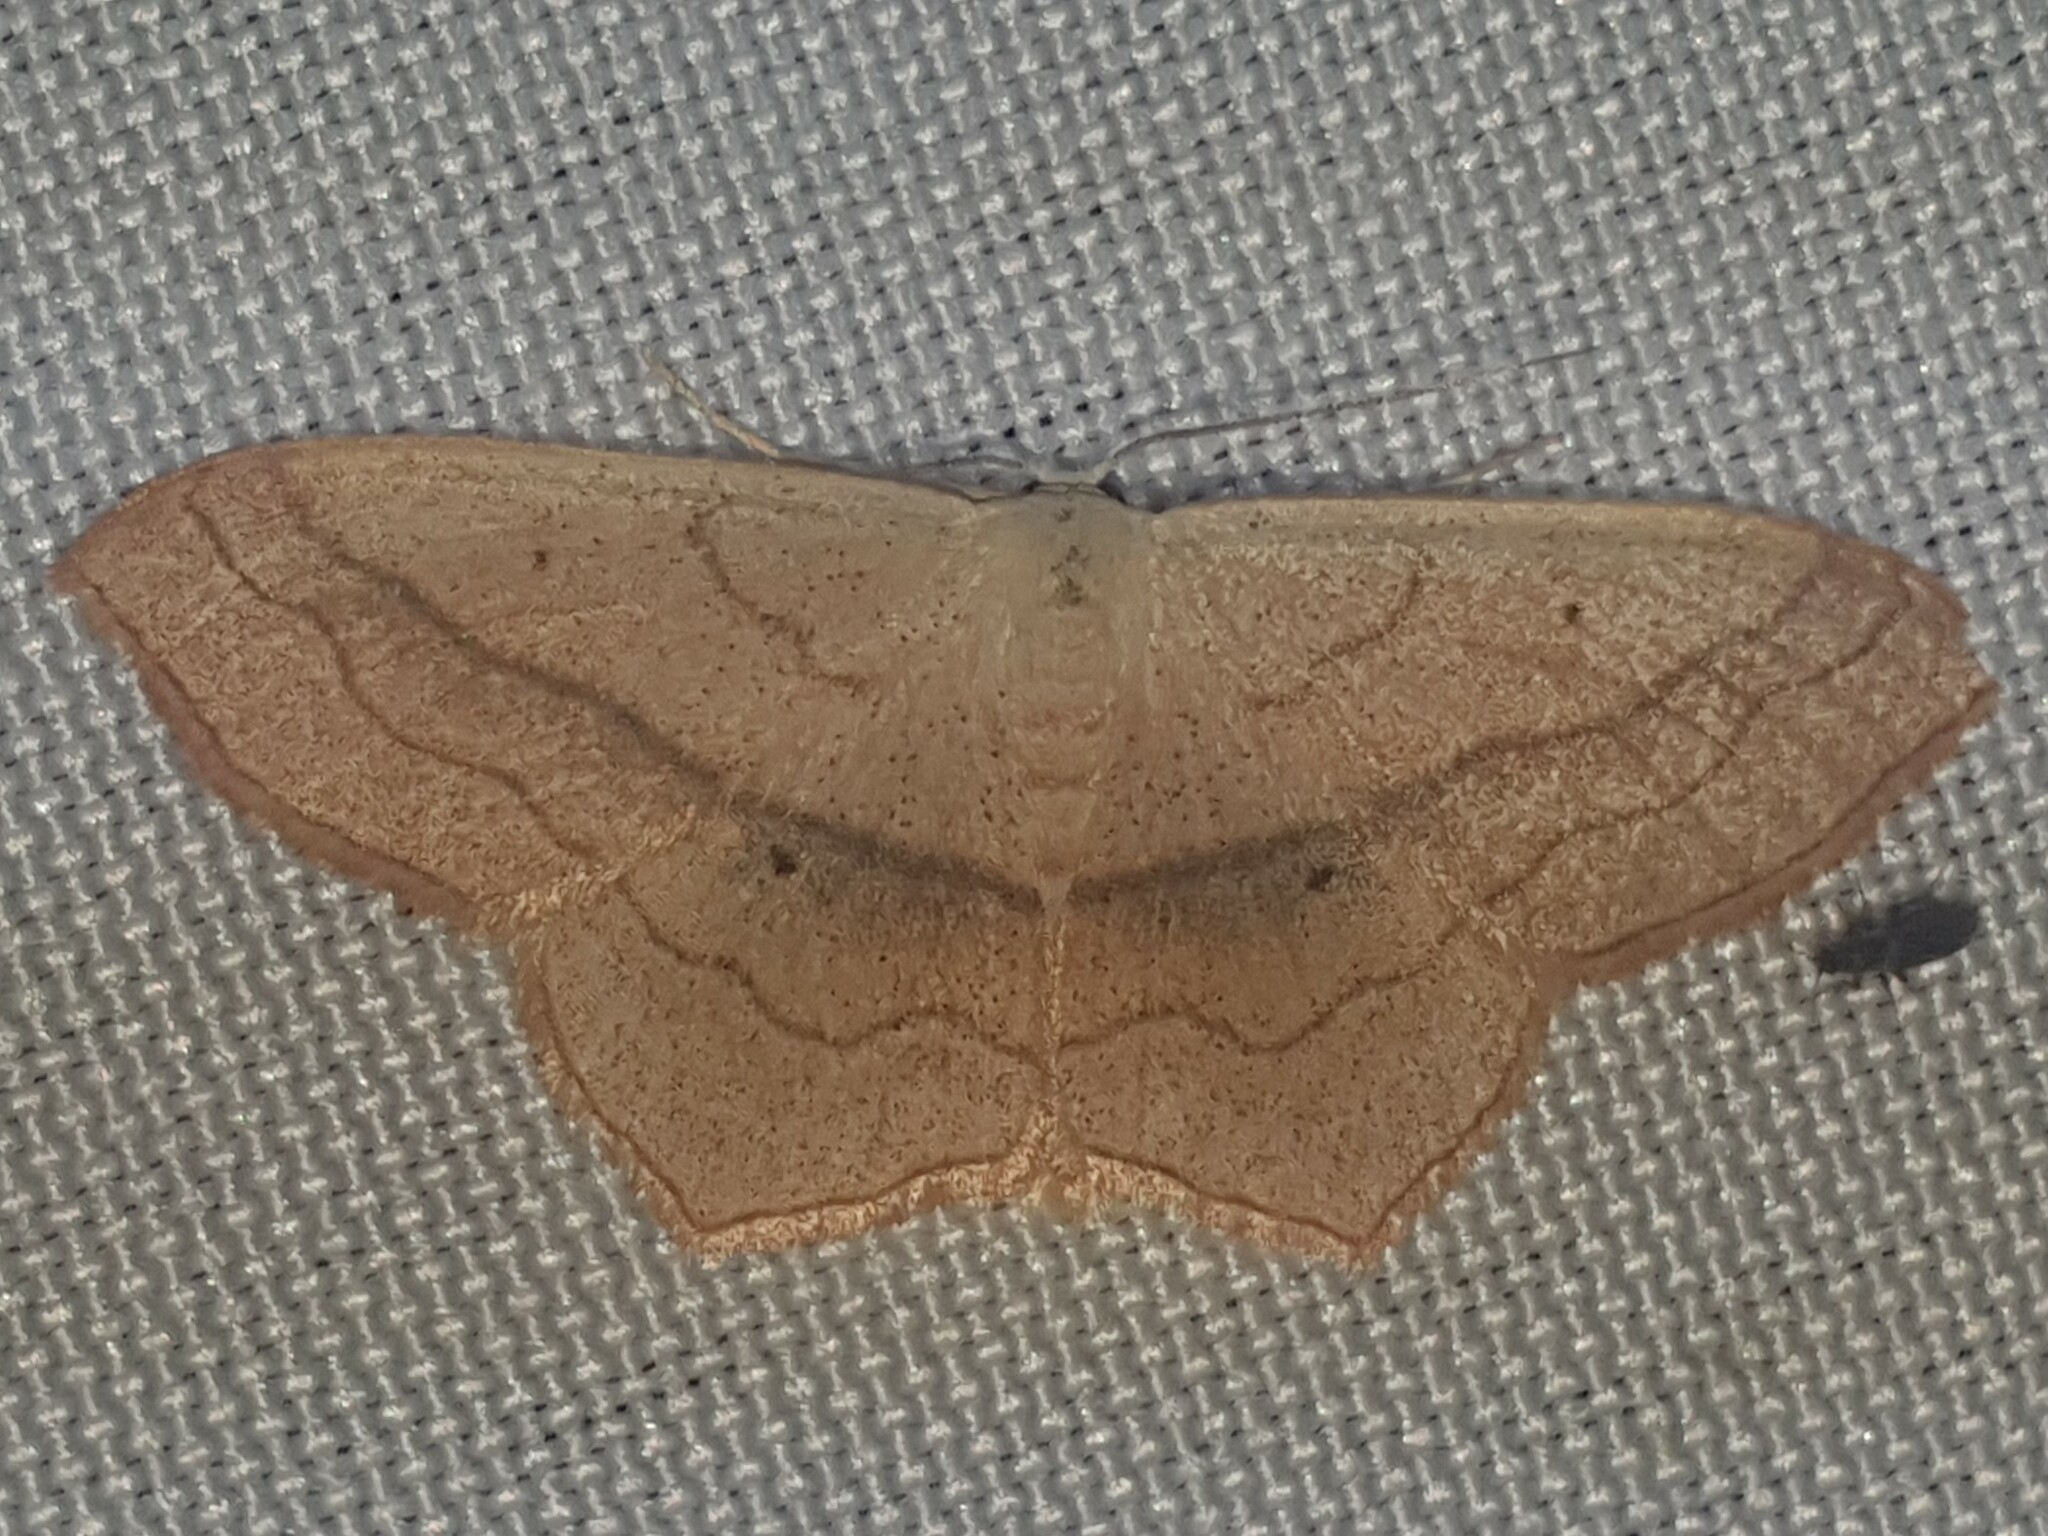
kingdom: Animalia
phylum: Arthropoda
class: Insecta
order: Lepidoptera
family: Geometridae
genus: Scopula
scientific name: Scopula imitaria
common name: Small blood-vein
